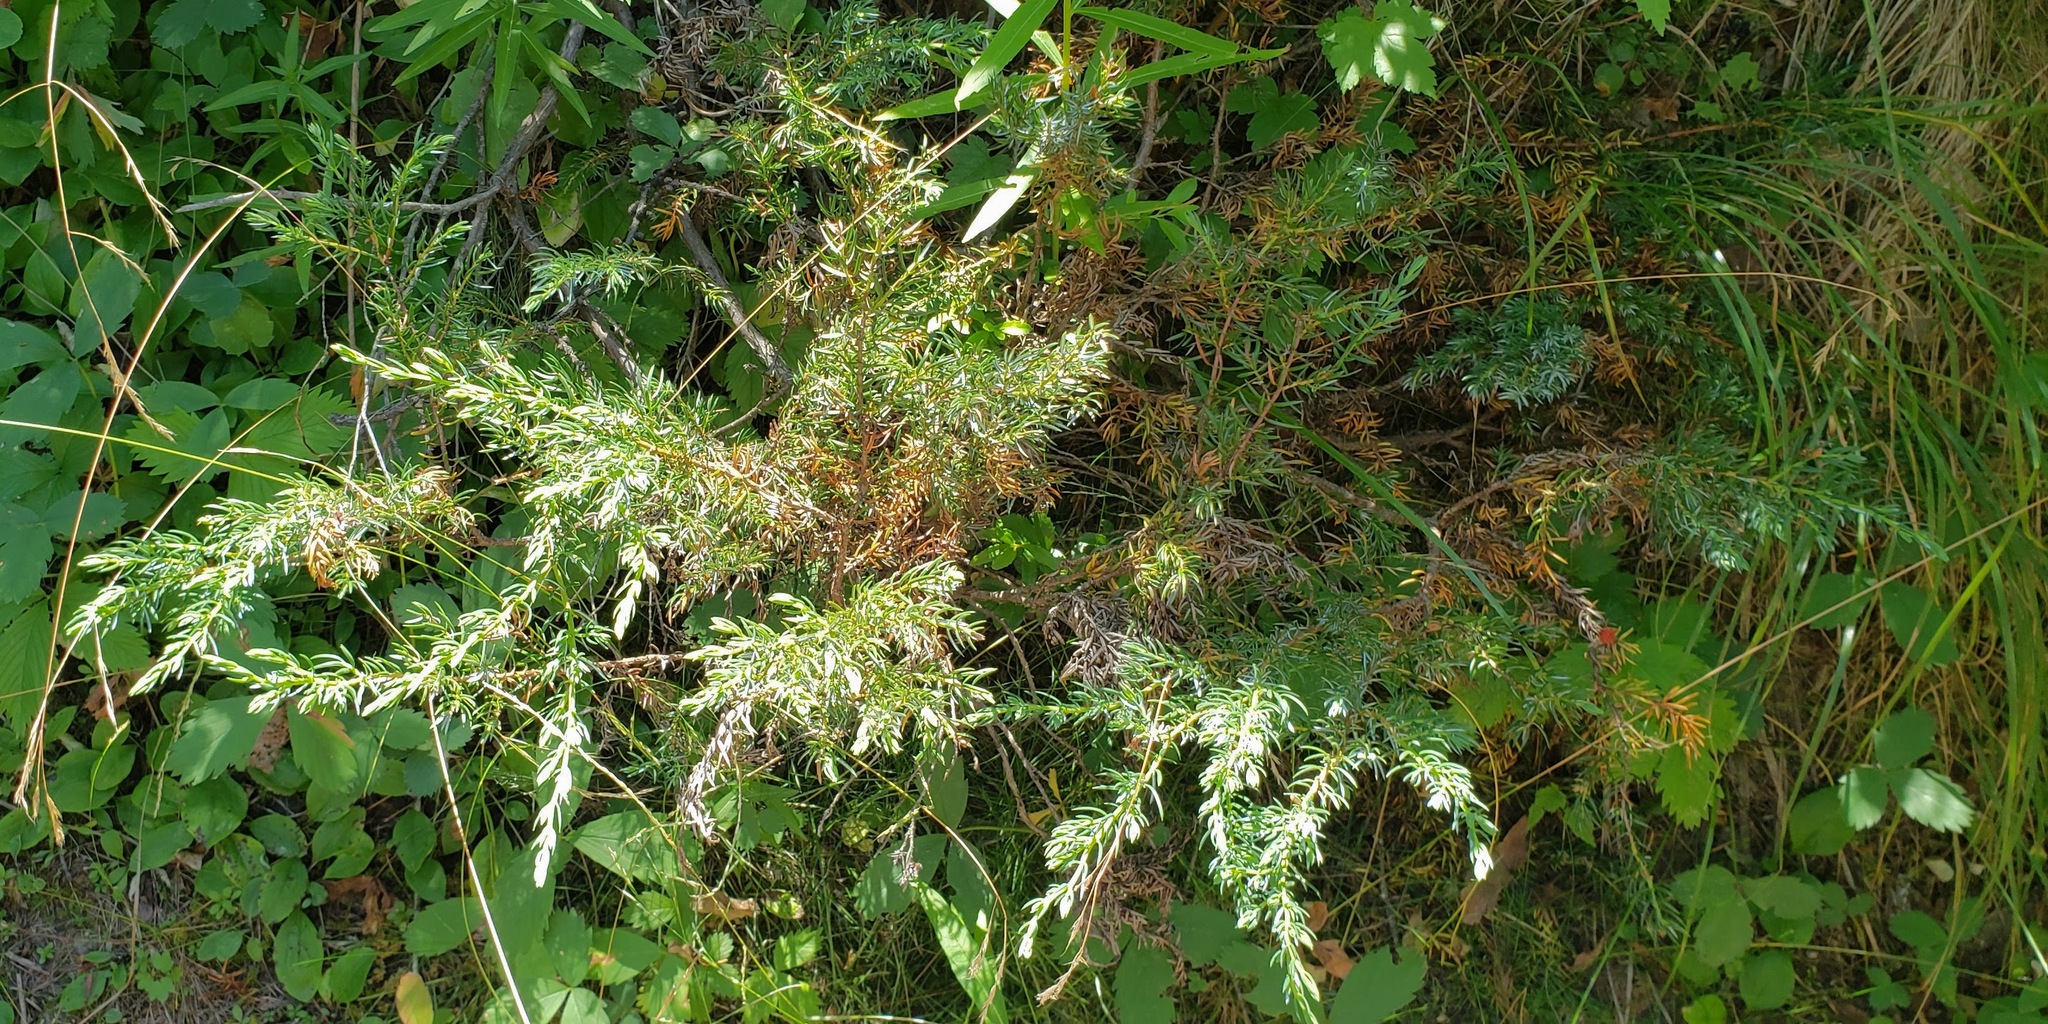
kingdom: Plantae
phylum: Tracheophyta
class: Pinopsida
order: Pinales
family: Cupressaceae
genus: Juniperus
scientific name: Juniperus communis
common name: Common juniper
